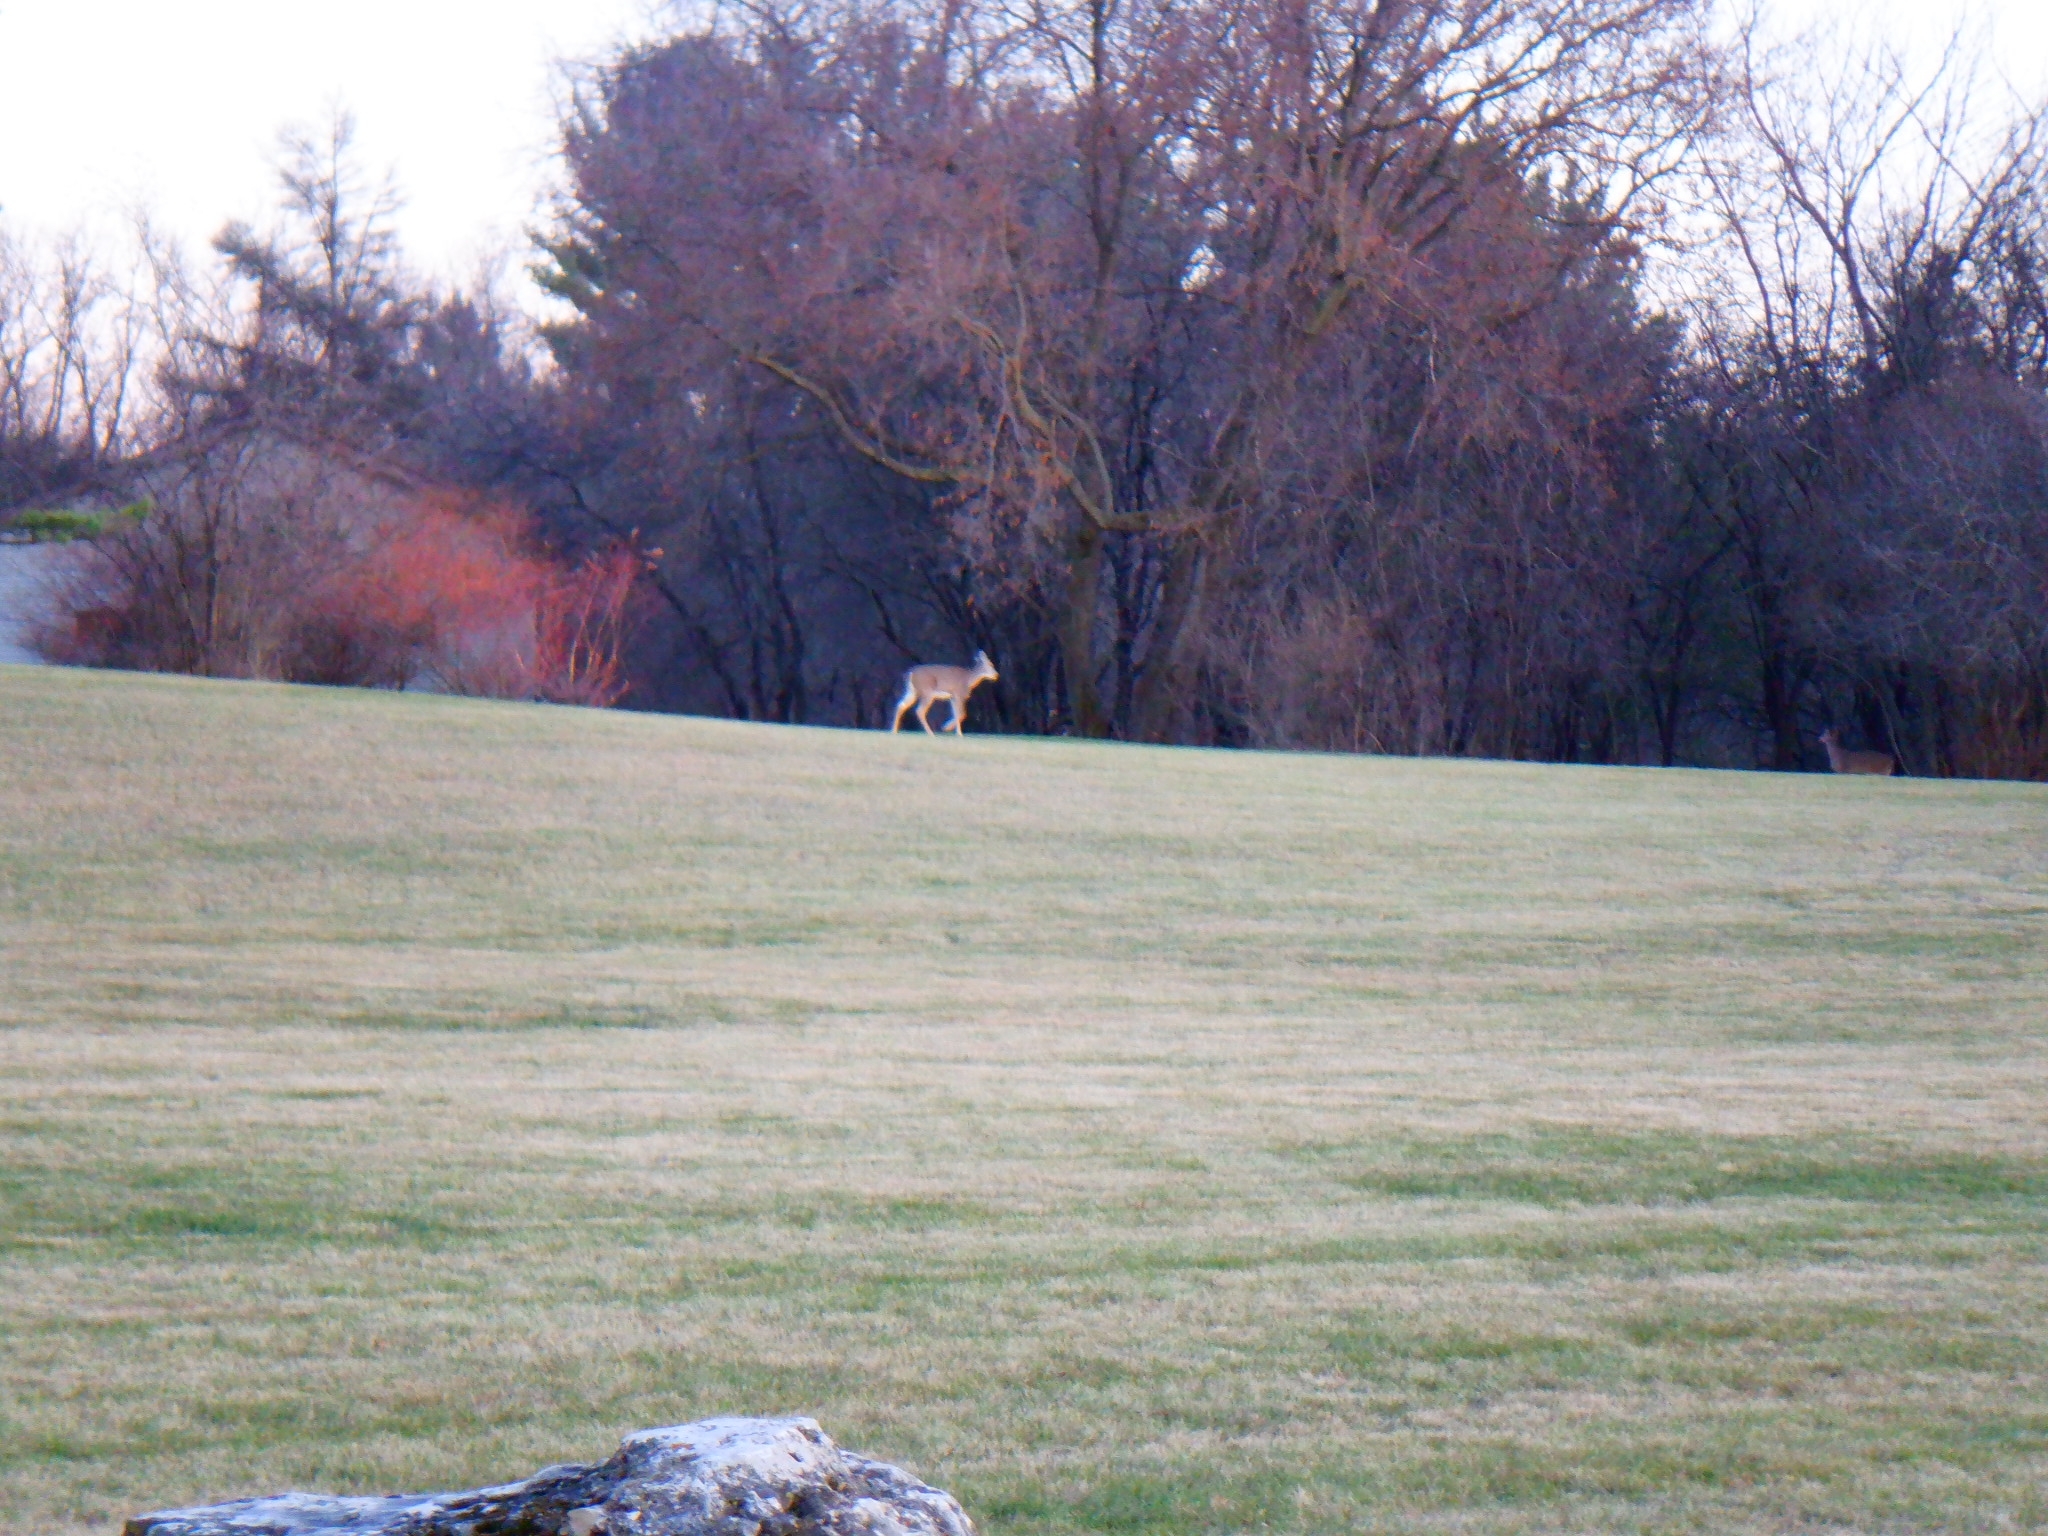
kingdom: Animalia
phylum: Chordata
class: Mammalia
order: Artiodactyla
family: Cervidae
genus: Odocoileus
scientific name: Odocoileus virginianus
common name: White-tailed deer
